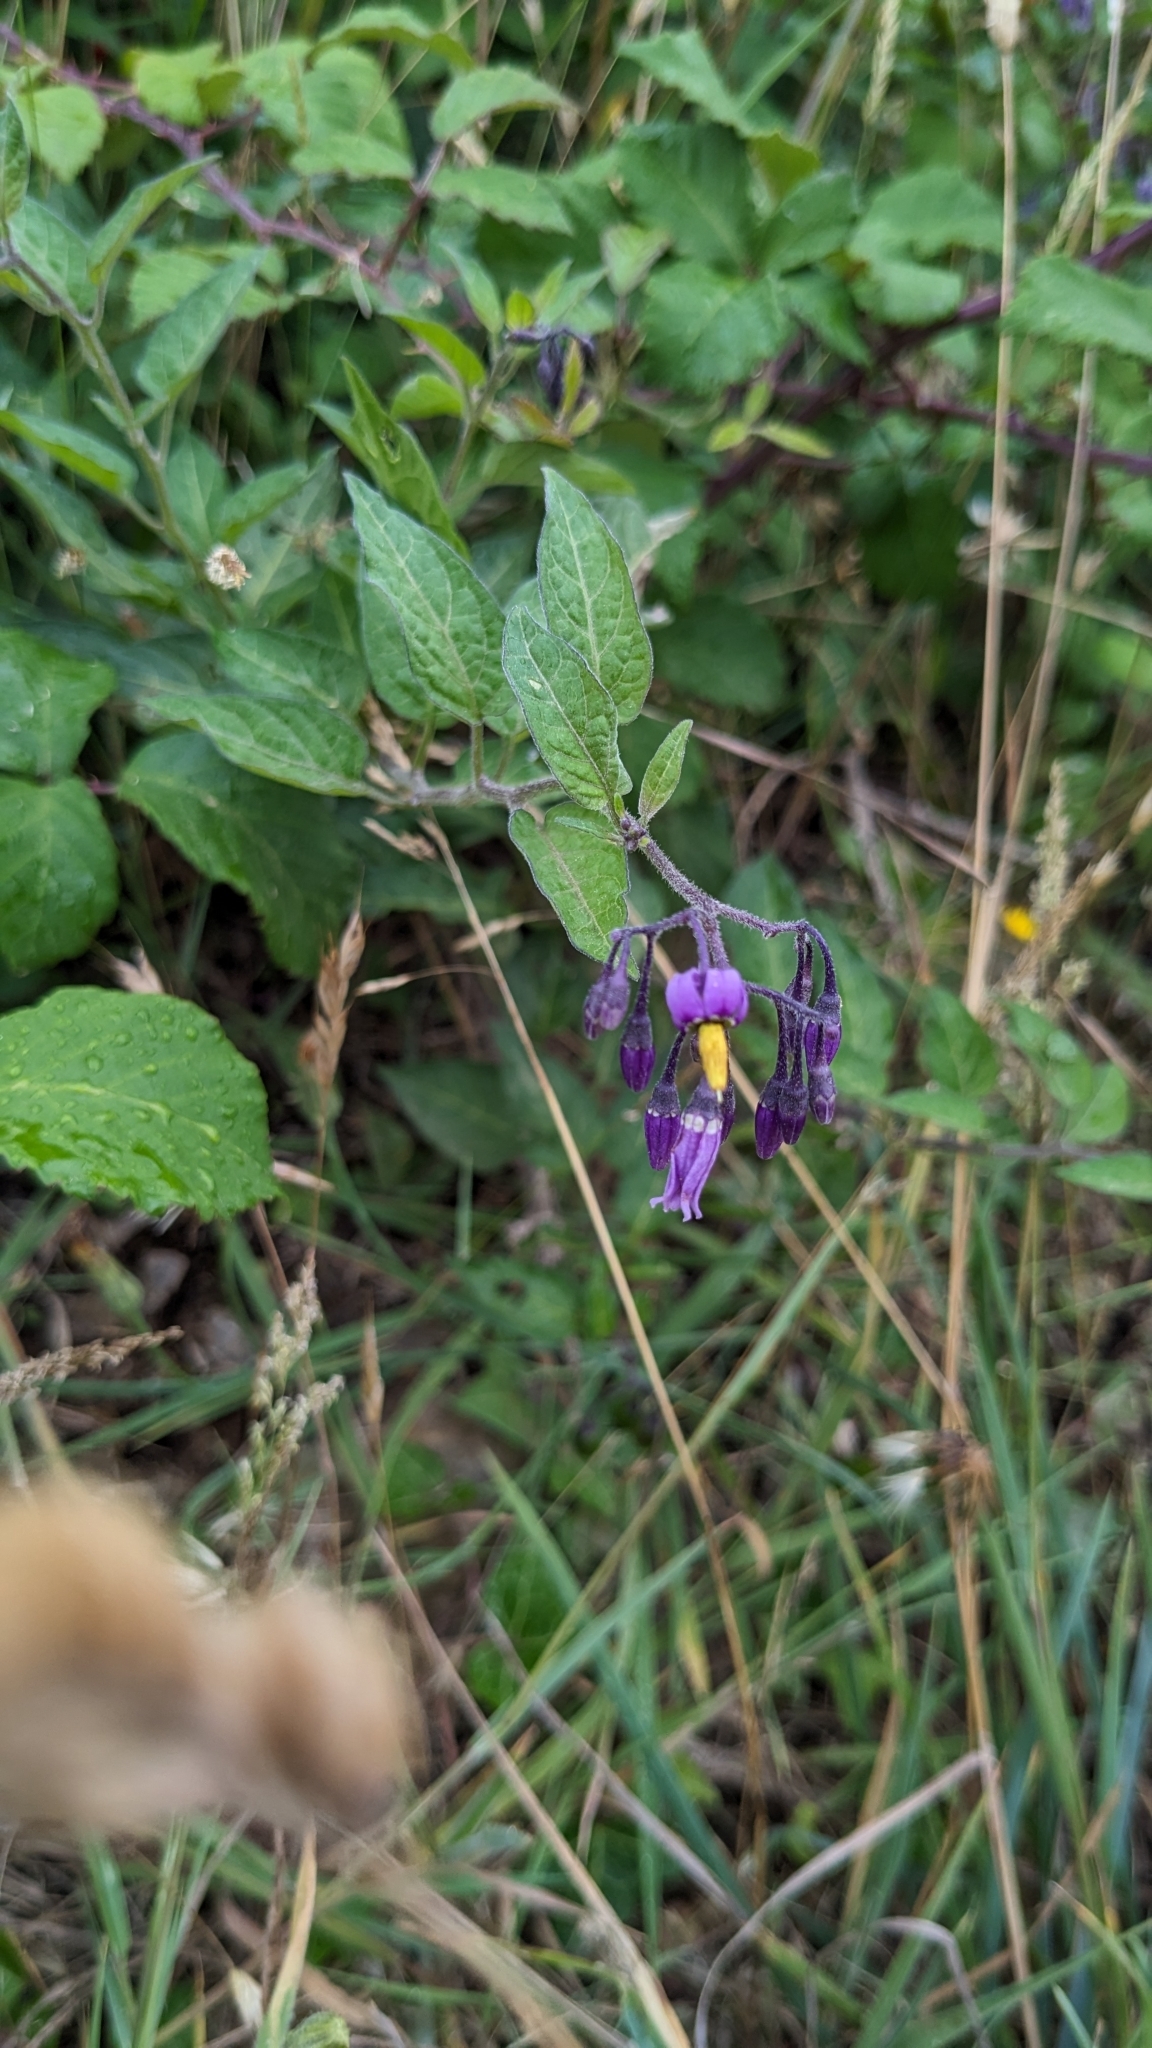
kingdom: Plantae
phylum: Tracheophyta
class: Magnoliopsida
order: Solanales
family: Solanaceae
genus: Solanum
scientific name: Solanum dulcamara
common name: Climbing nightshade
